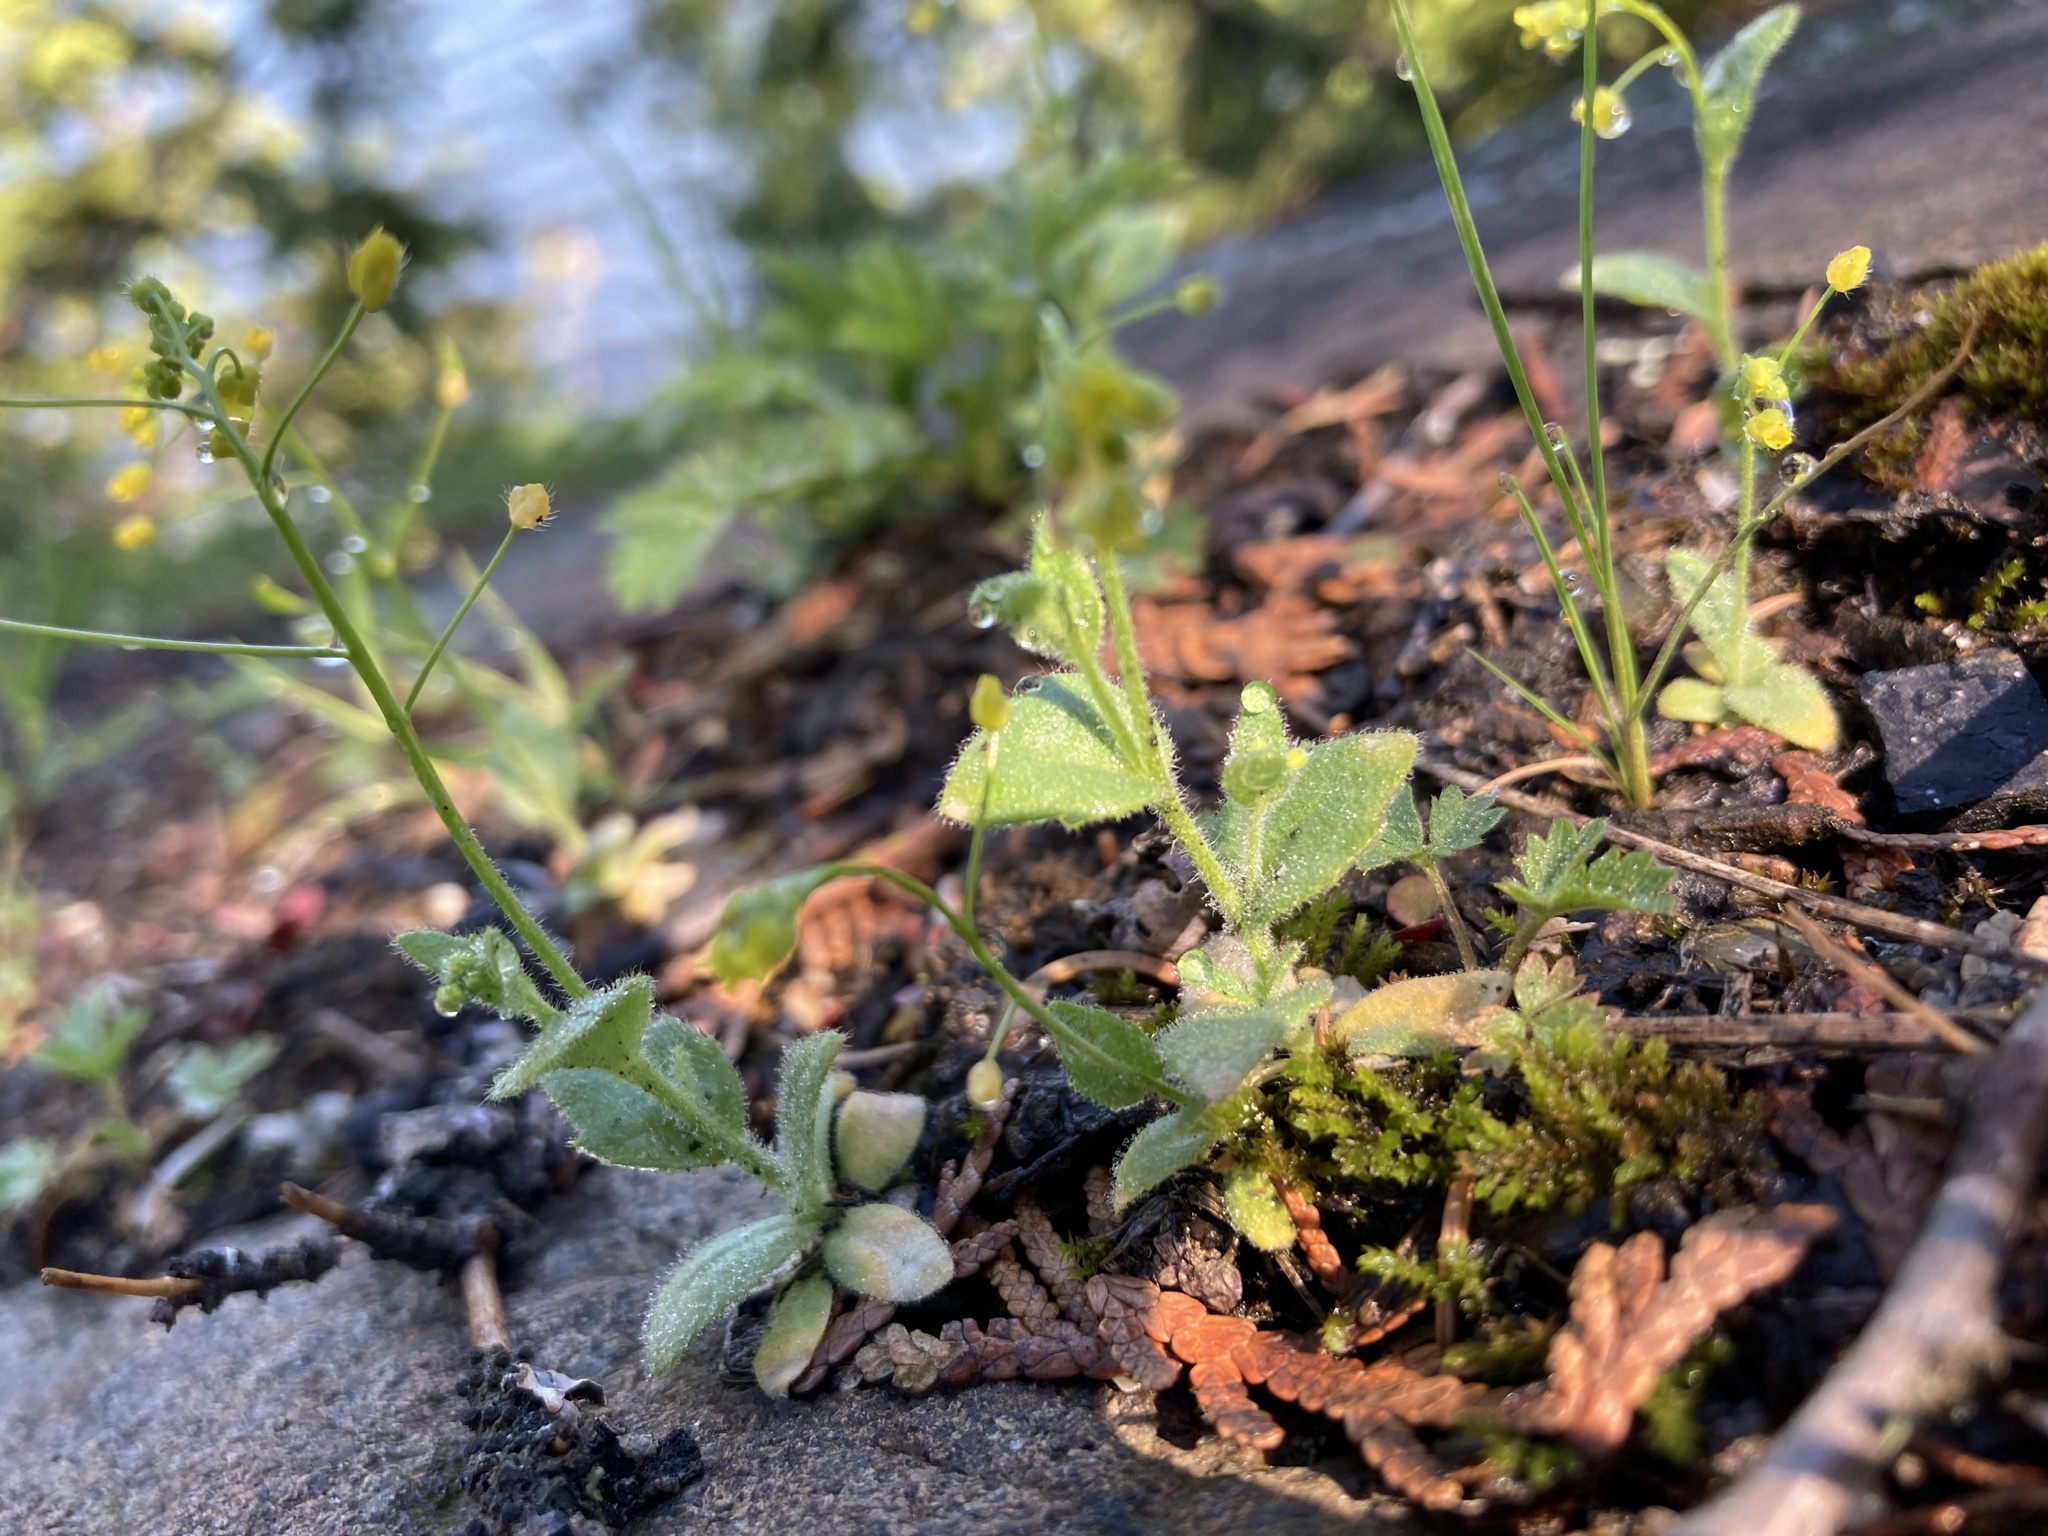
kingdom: Plantae
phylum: Tracheophyta
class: Magnoliopsida
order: Brassicales
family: Brassicaceae
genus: Draba
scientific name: Draba nemorosa
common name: Wood whitlow-grass
